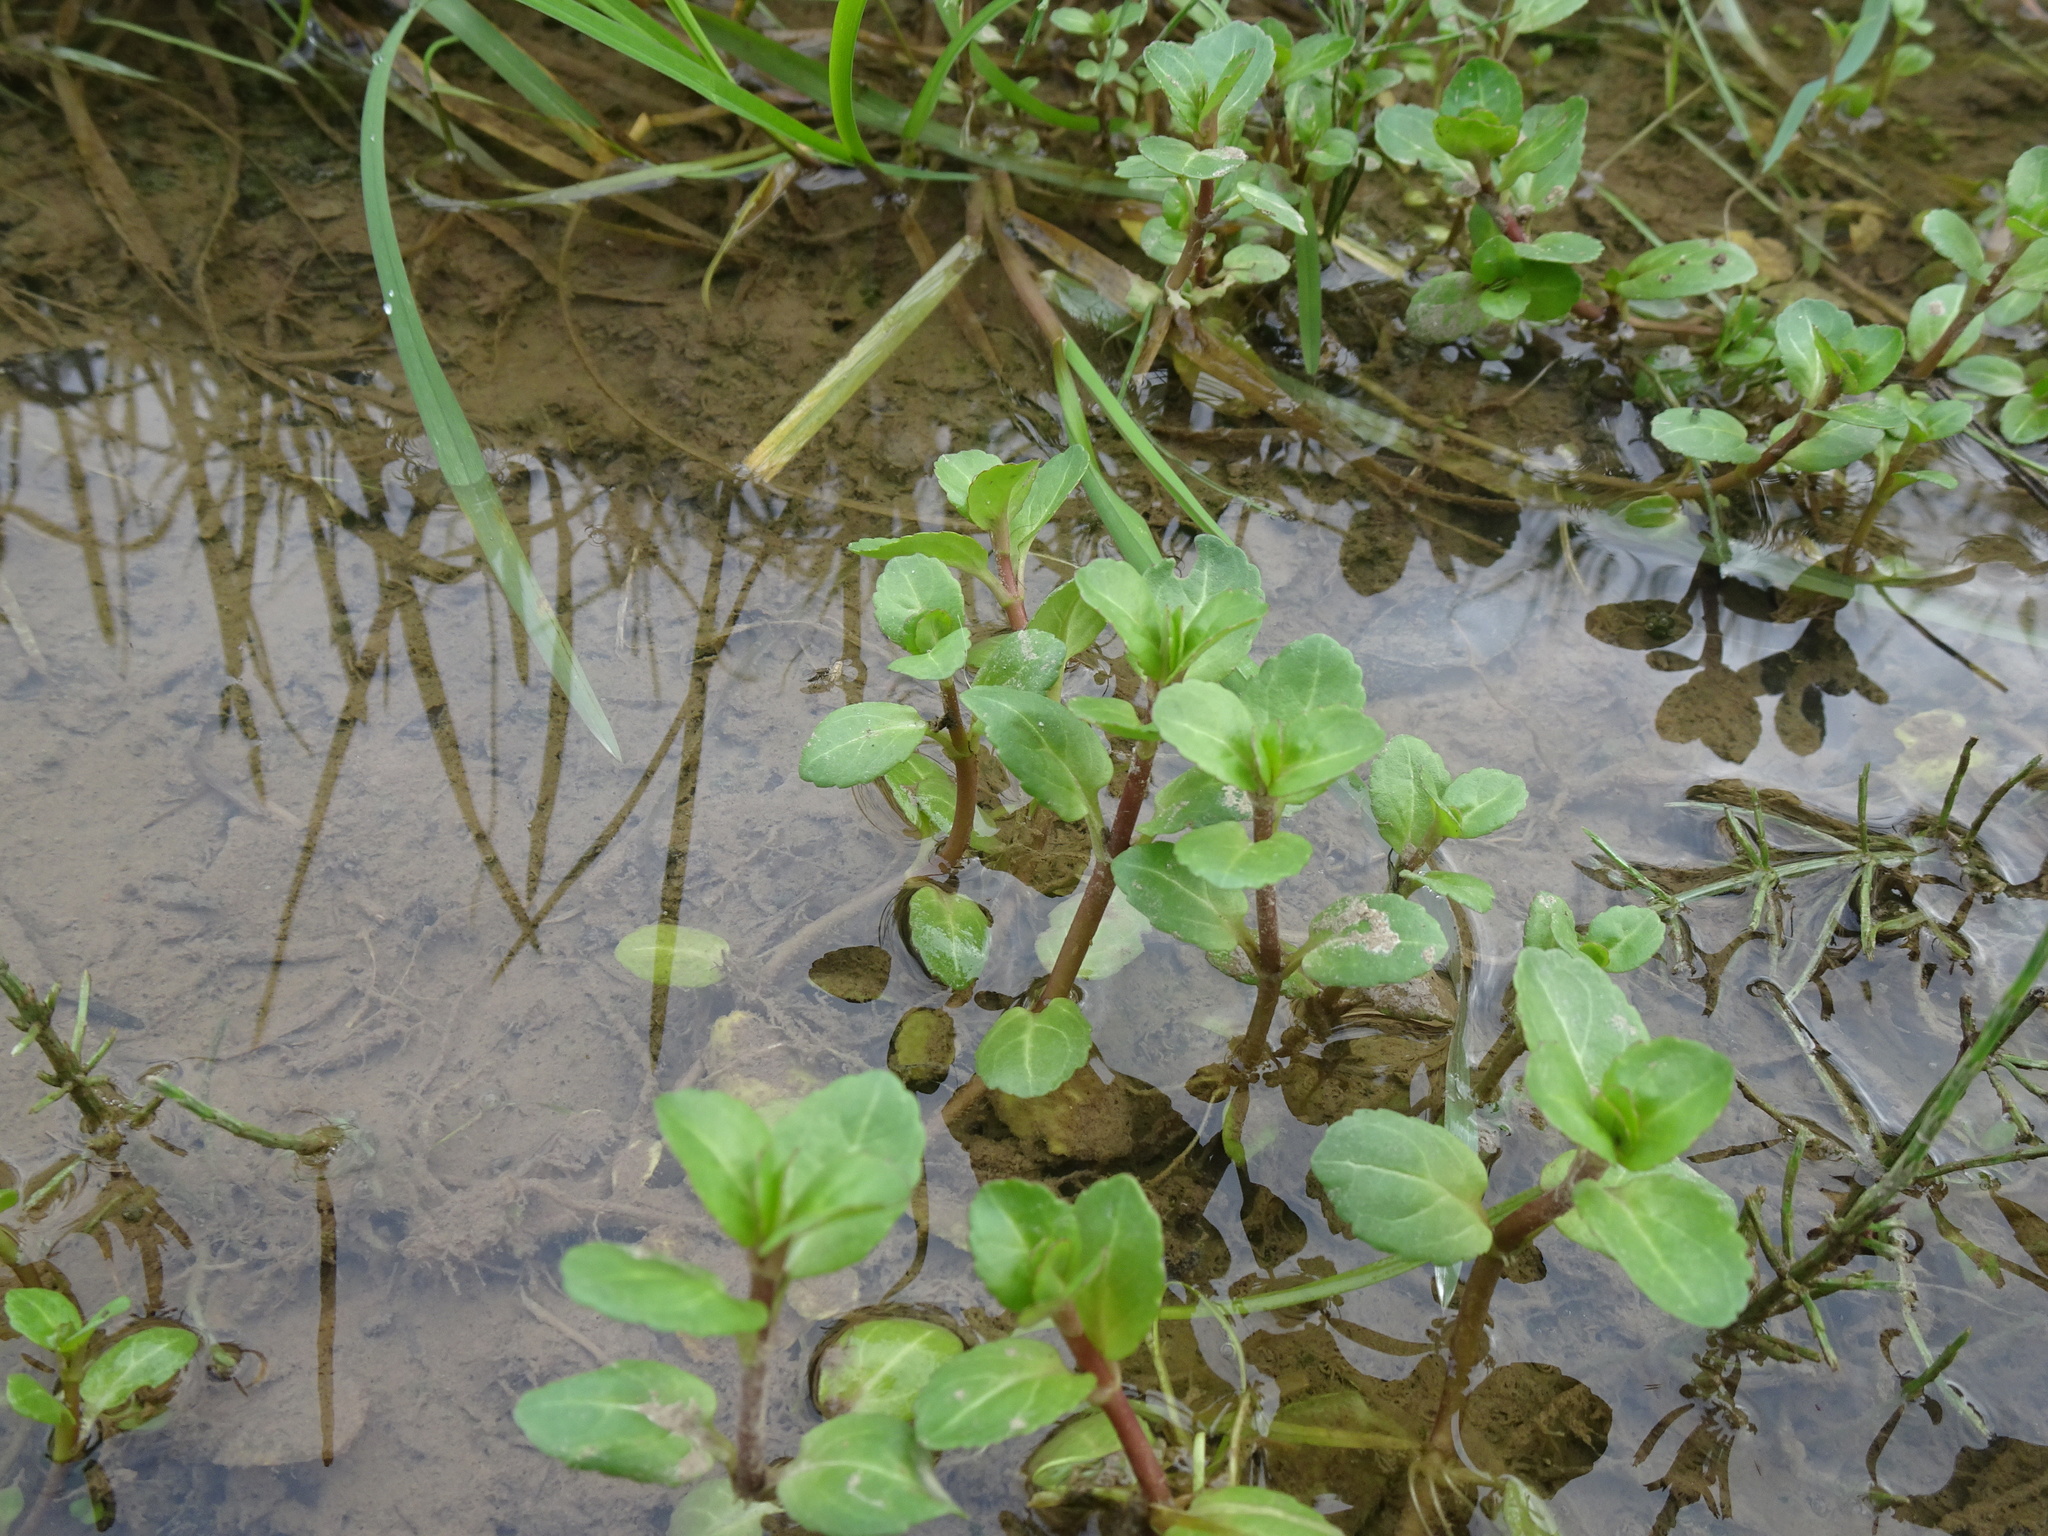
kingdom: Plantae
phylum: Tracheophyta
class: Magnoliopsida
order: Lamiales
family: Plantaginaceae
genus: Veronica
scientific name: Veronica beccabunga
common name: Brooklime
